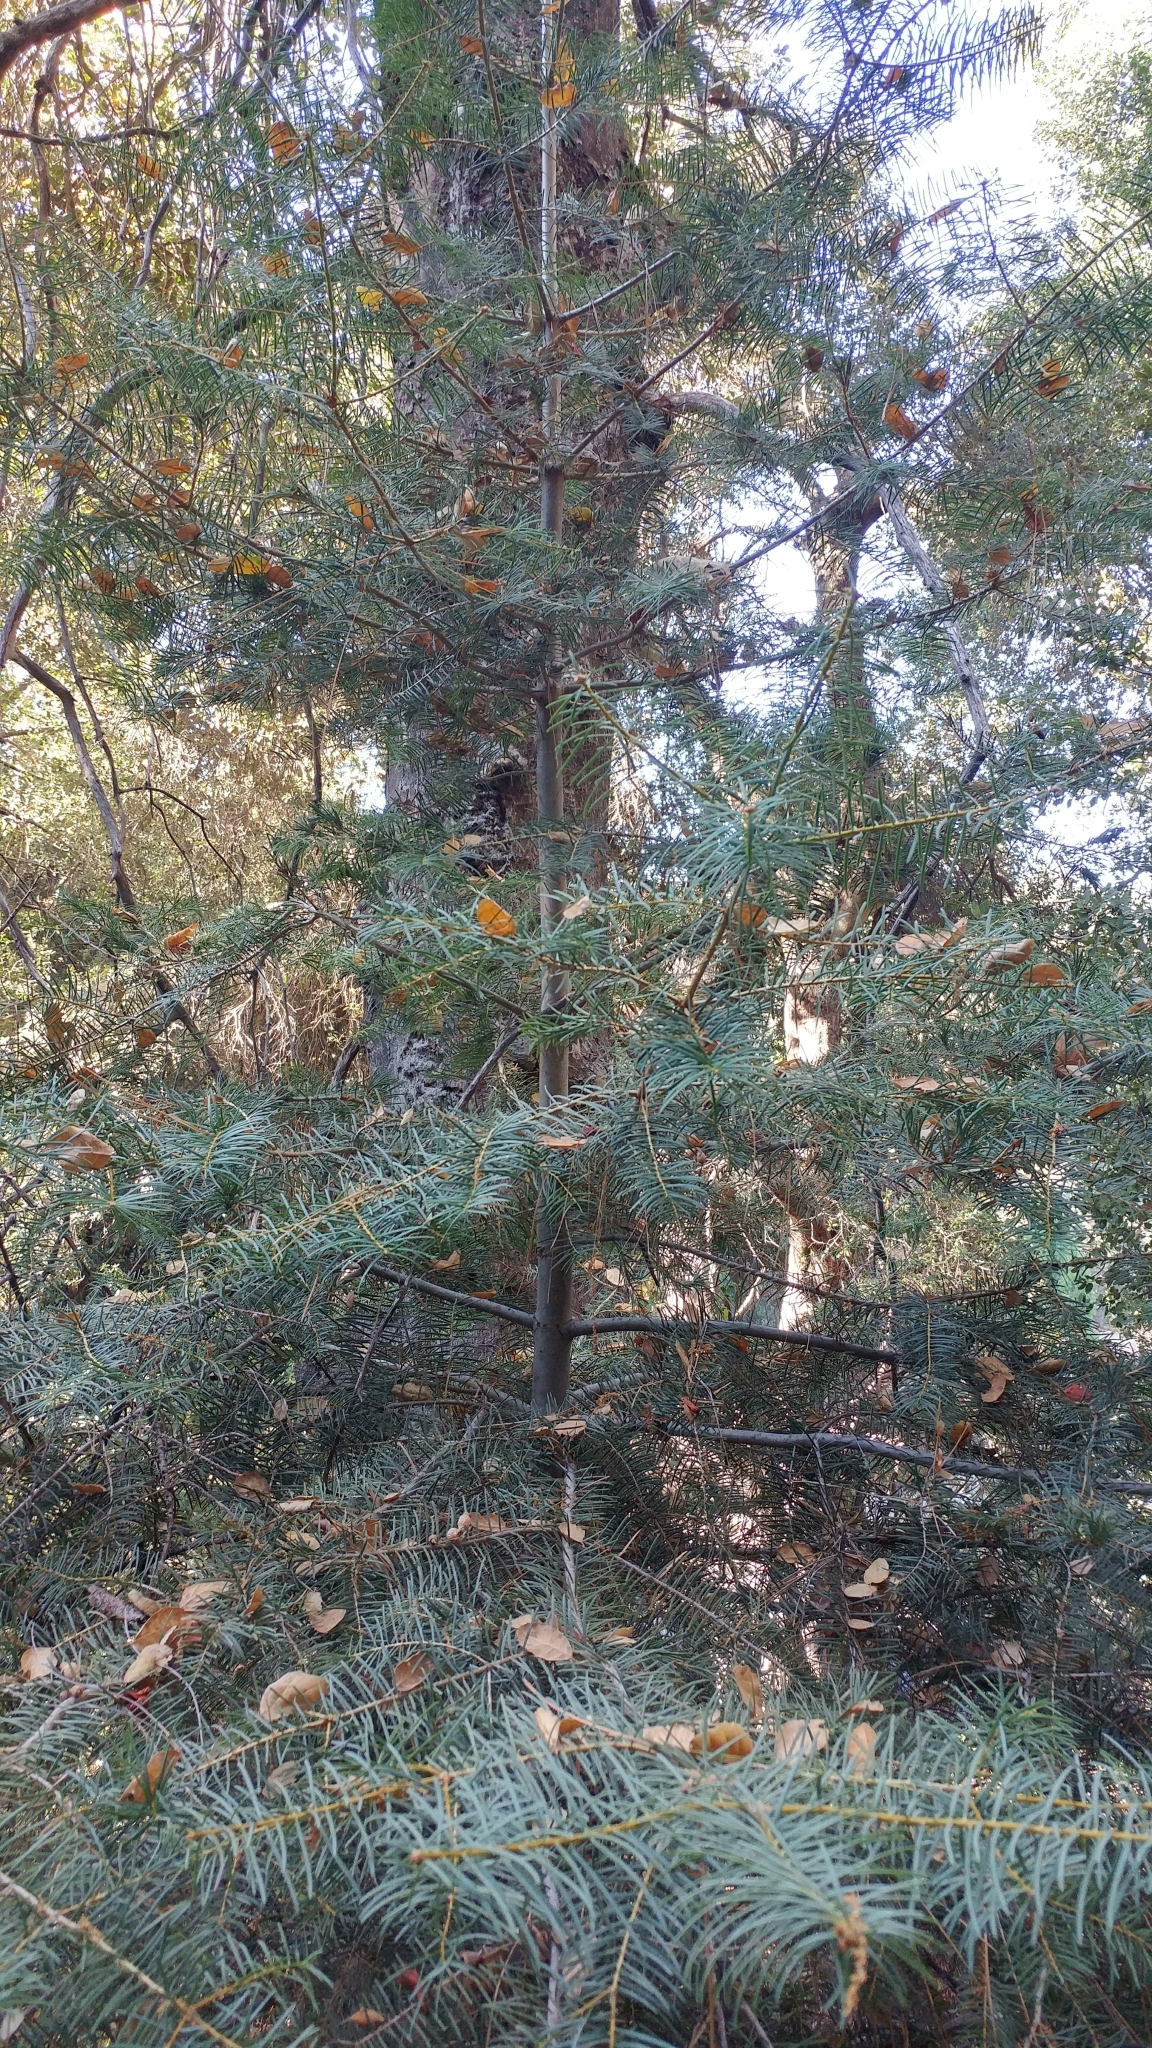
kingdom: Plantae
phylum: Tracheophyta
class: Pinopsida
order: Pinales
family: Pinaceae
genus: Abies
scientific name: Abies concolor
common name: Colorado fir
